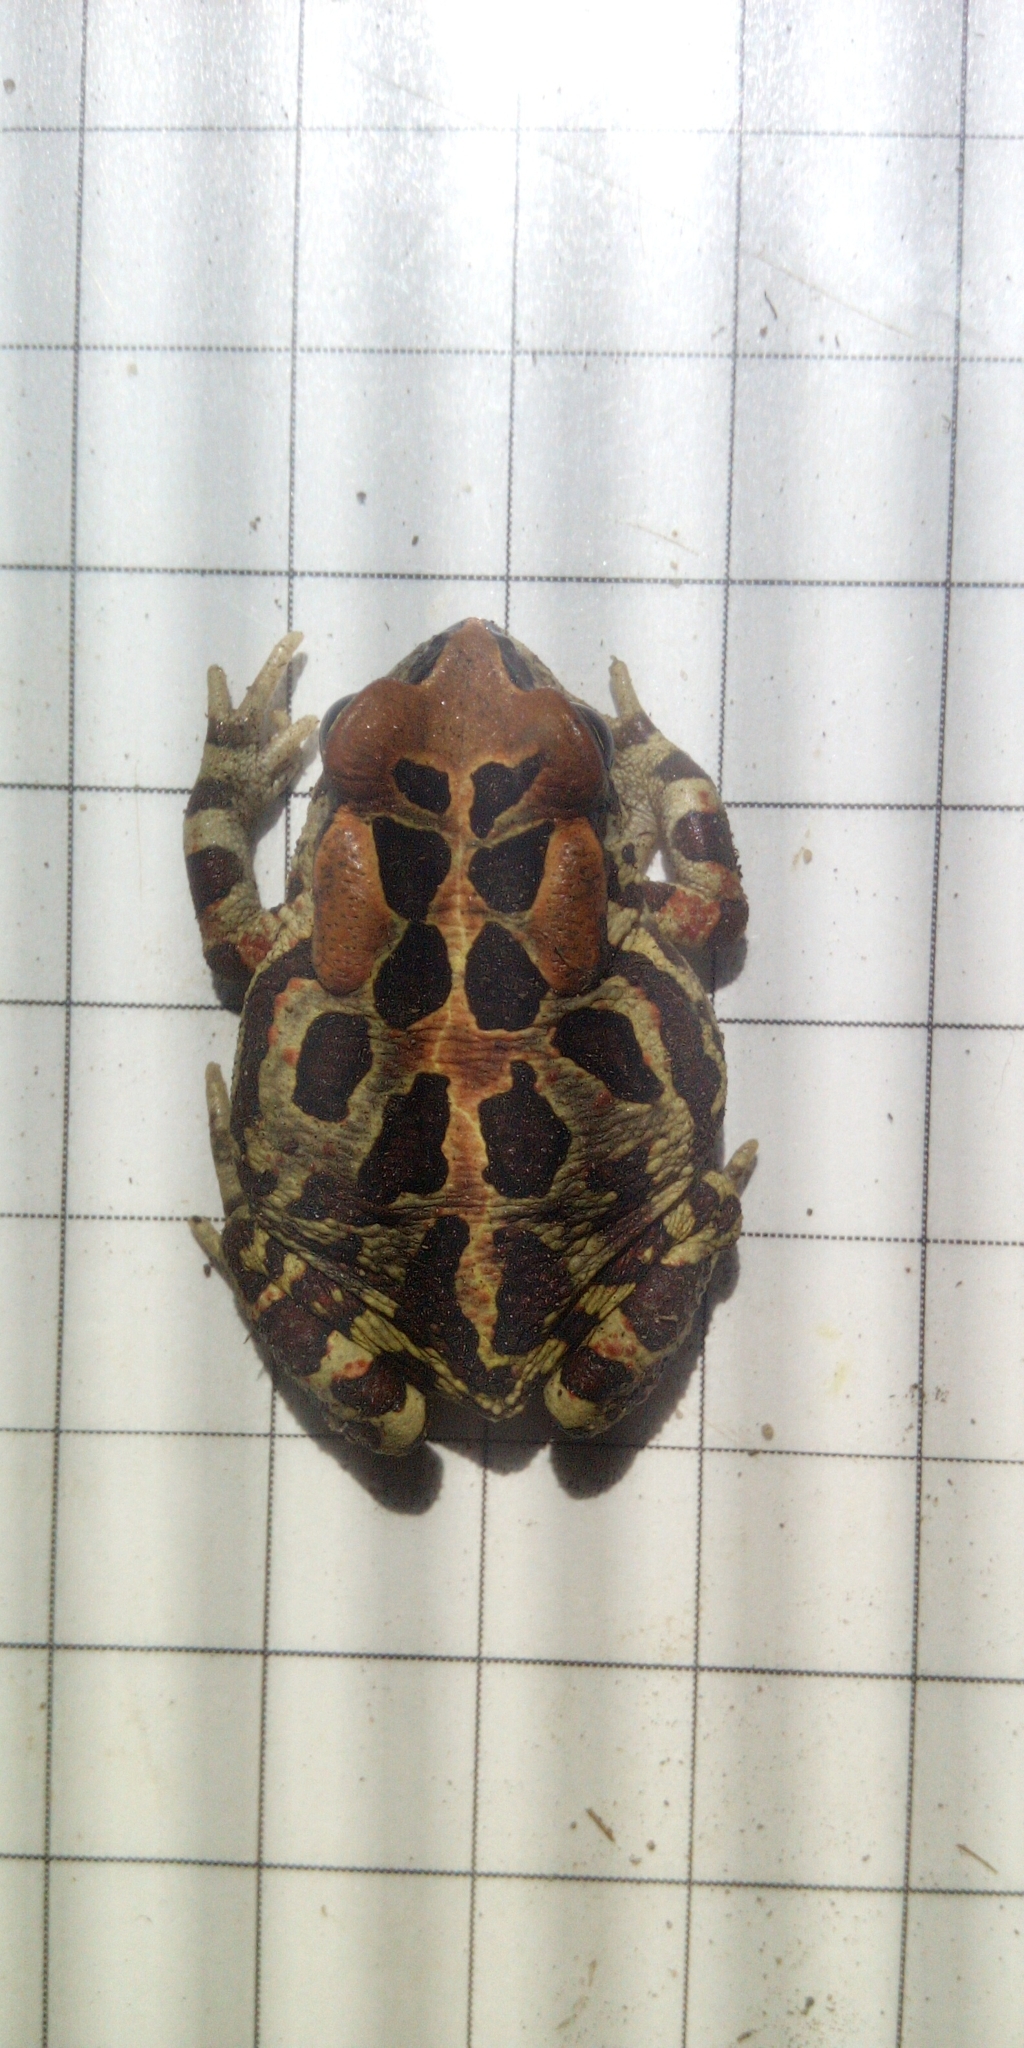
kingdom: Animalia
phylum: Chordata
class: Amphibia
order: Anura
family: Bufonidae
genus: Sclerophrys
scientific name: Sclerophrys pantherina
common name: Panther toad
